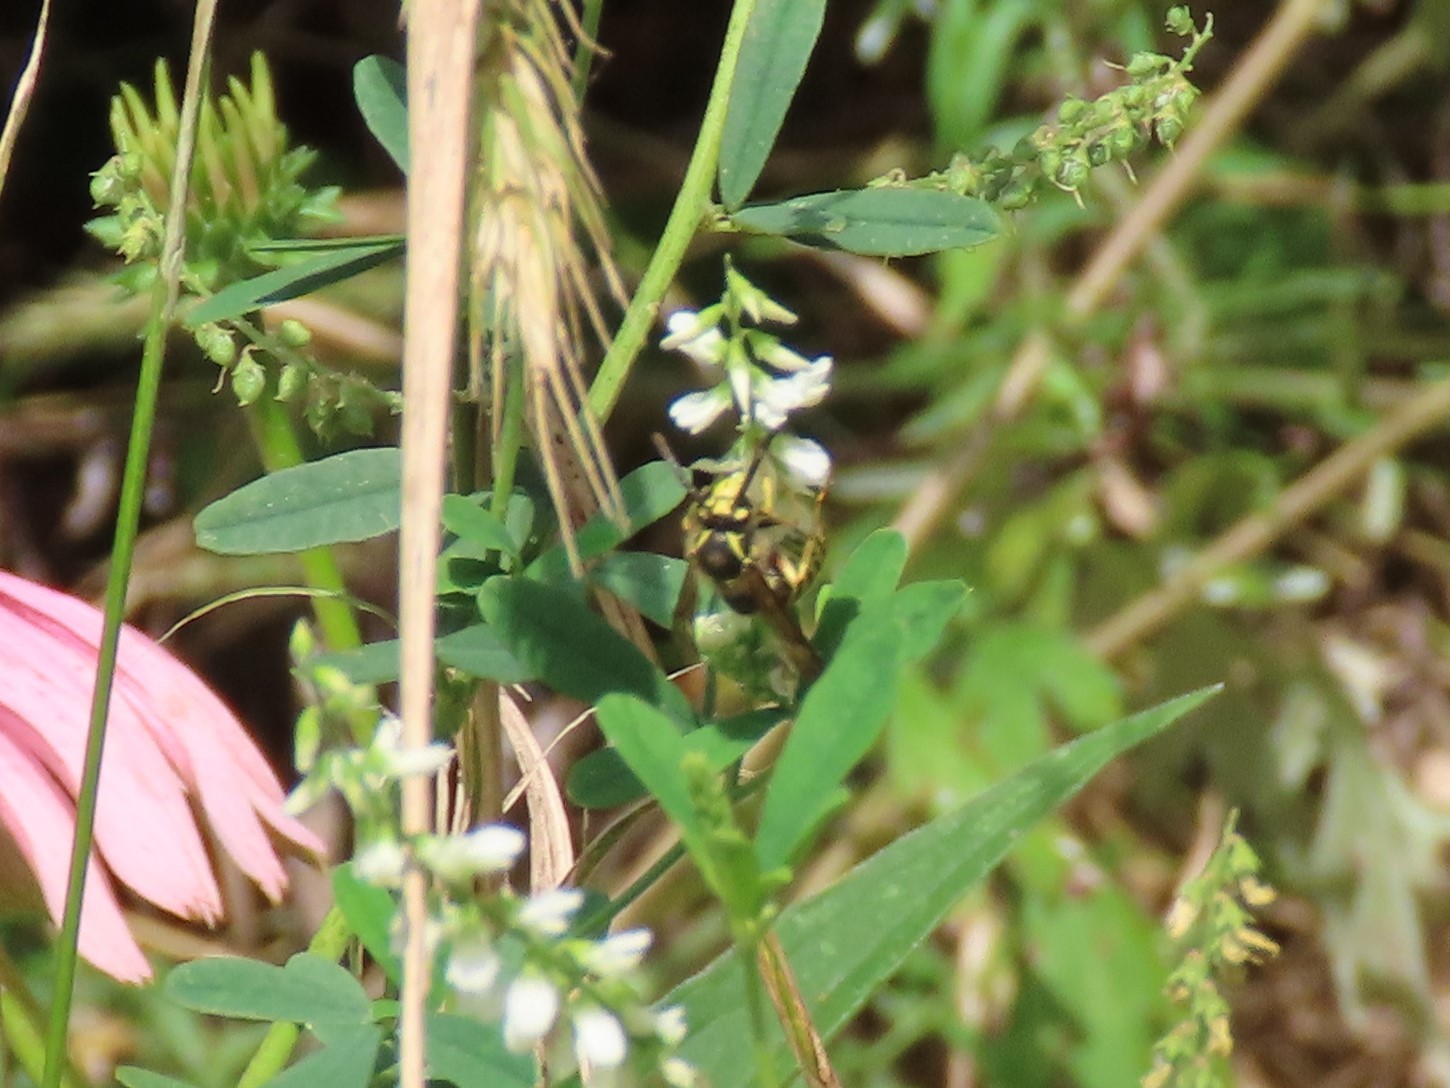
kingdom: Animalia
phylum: Arthropoda
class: Insecta
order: Hymenoptera
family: Vespidae
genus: Dolichovespula
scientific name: Dolichovespula arenaria
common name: Aerial yellowjacket
